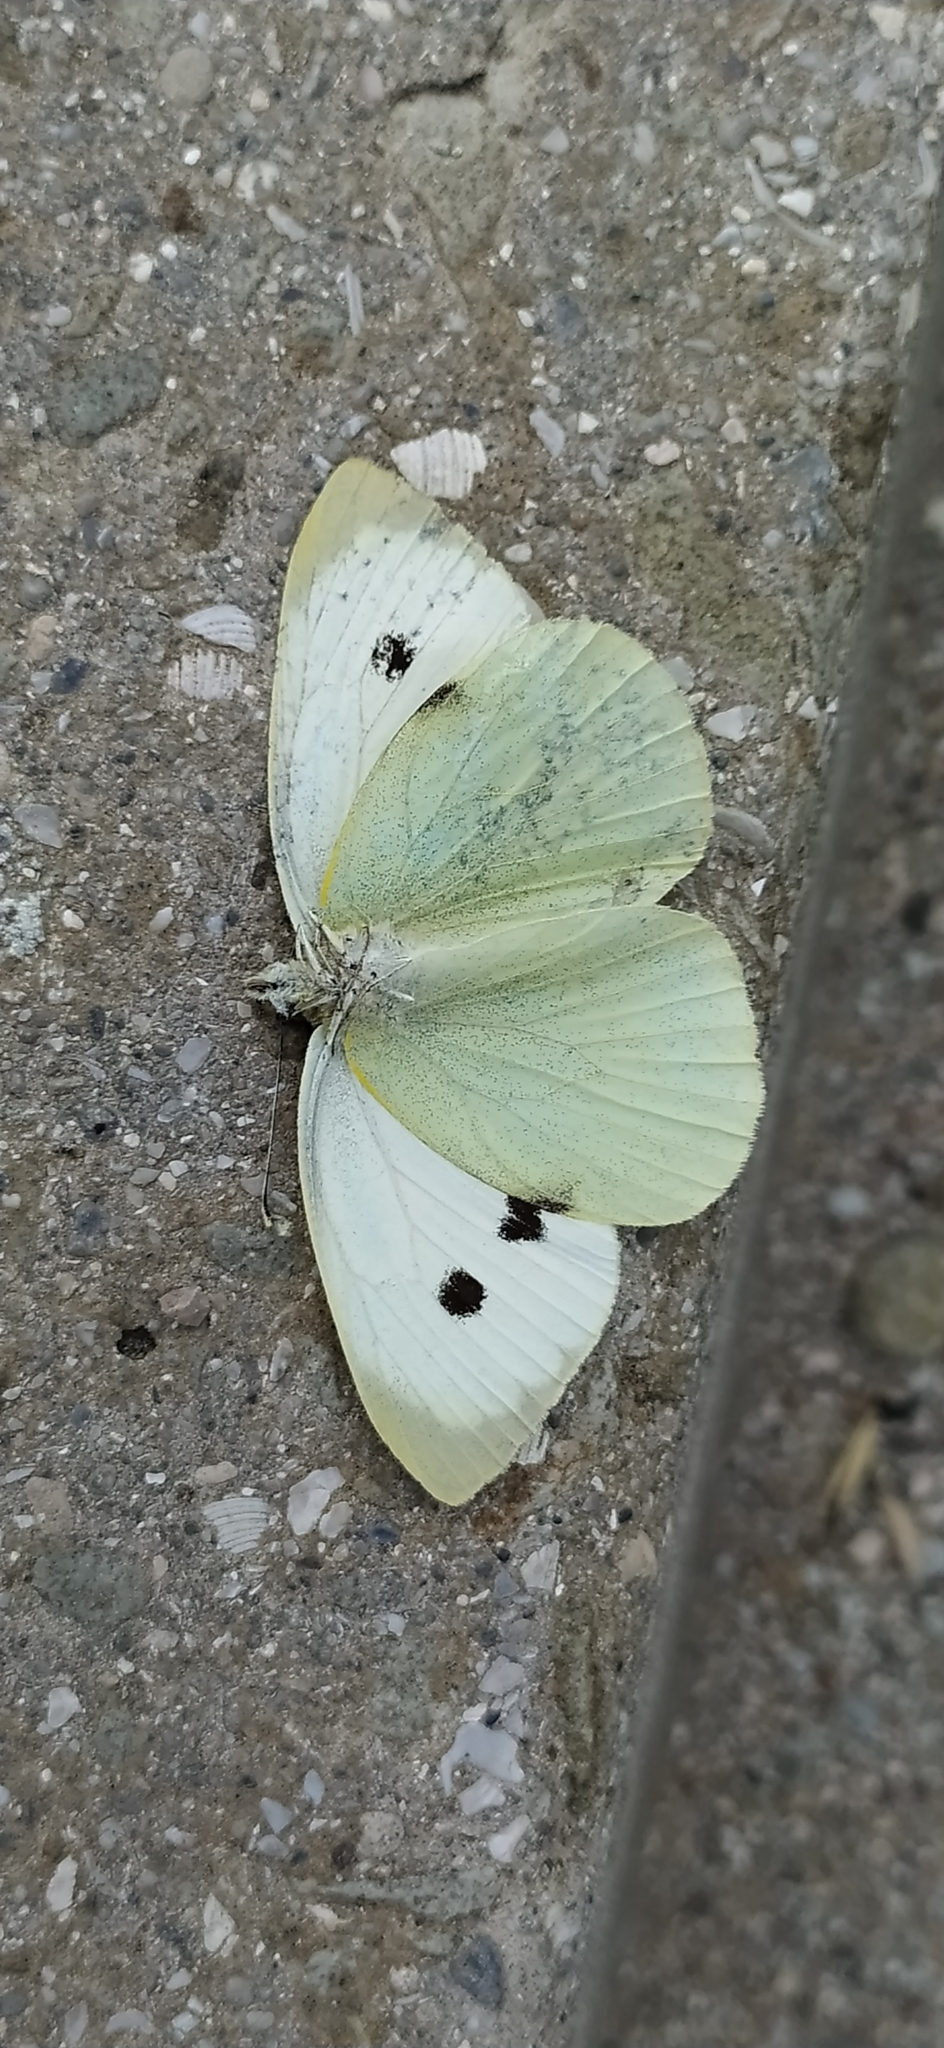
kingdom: Animalia
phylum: Arthropoda
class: Insecta
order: Lepidoptera
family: Pieridae
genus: Pieris
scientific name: Pieris brassicae
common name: Large white
